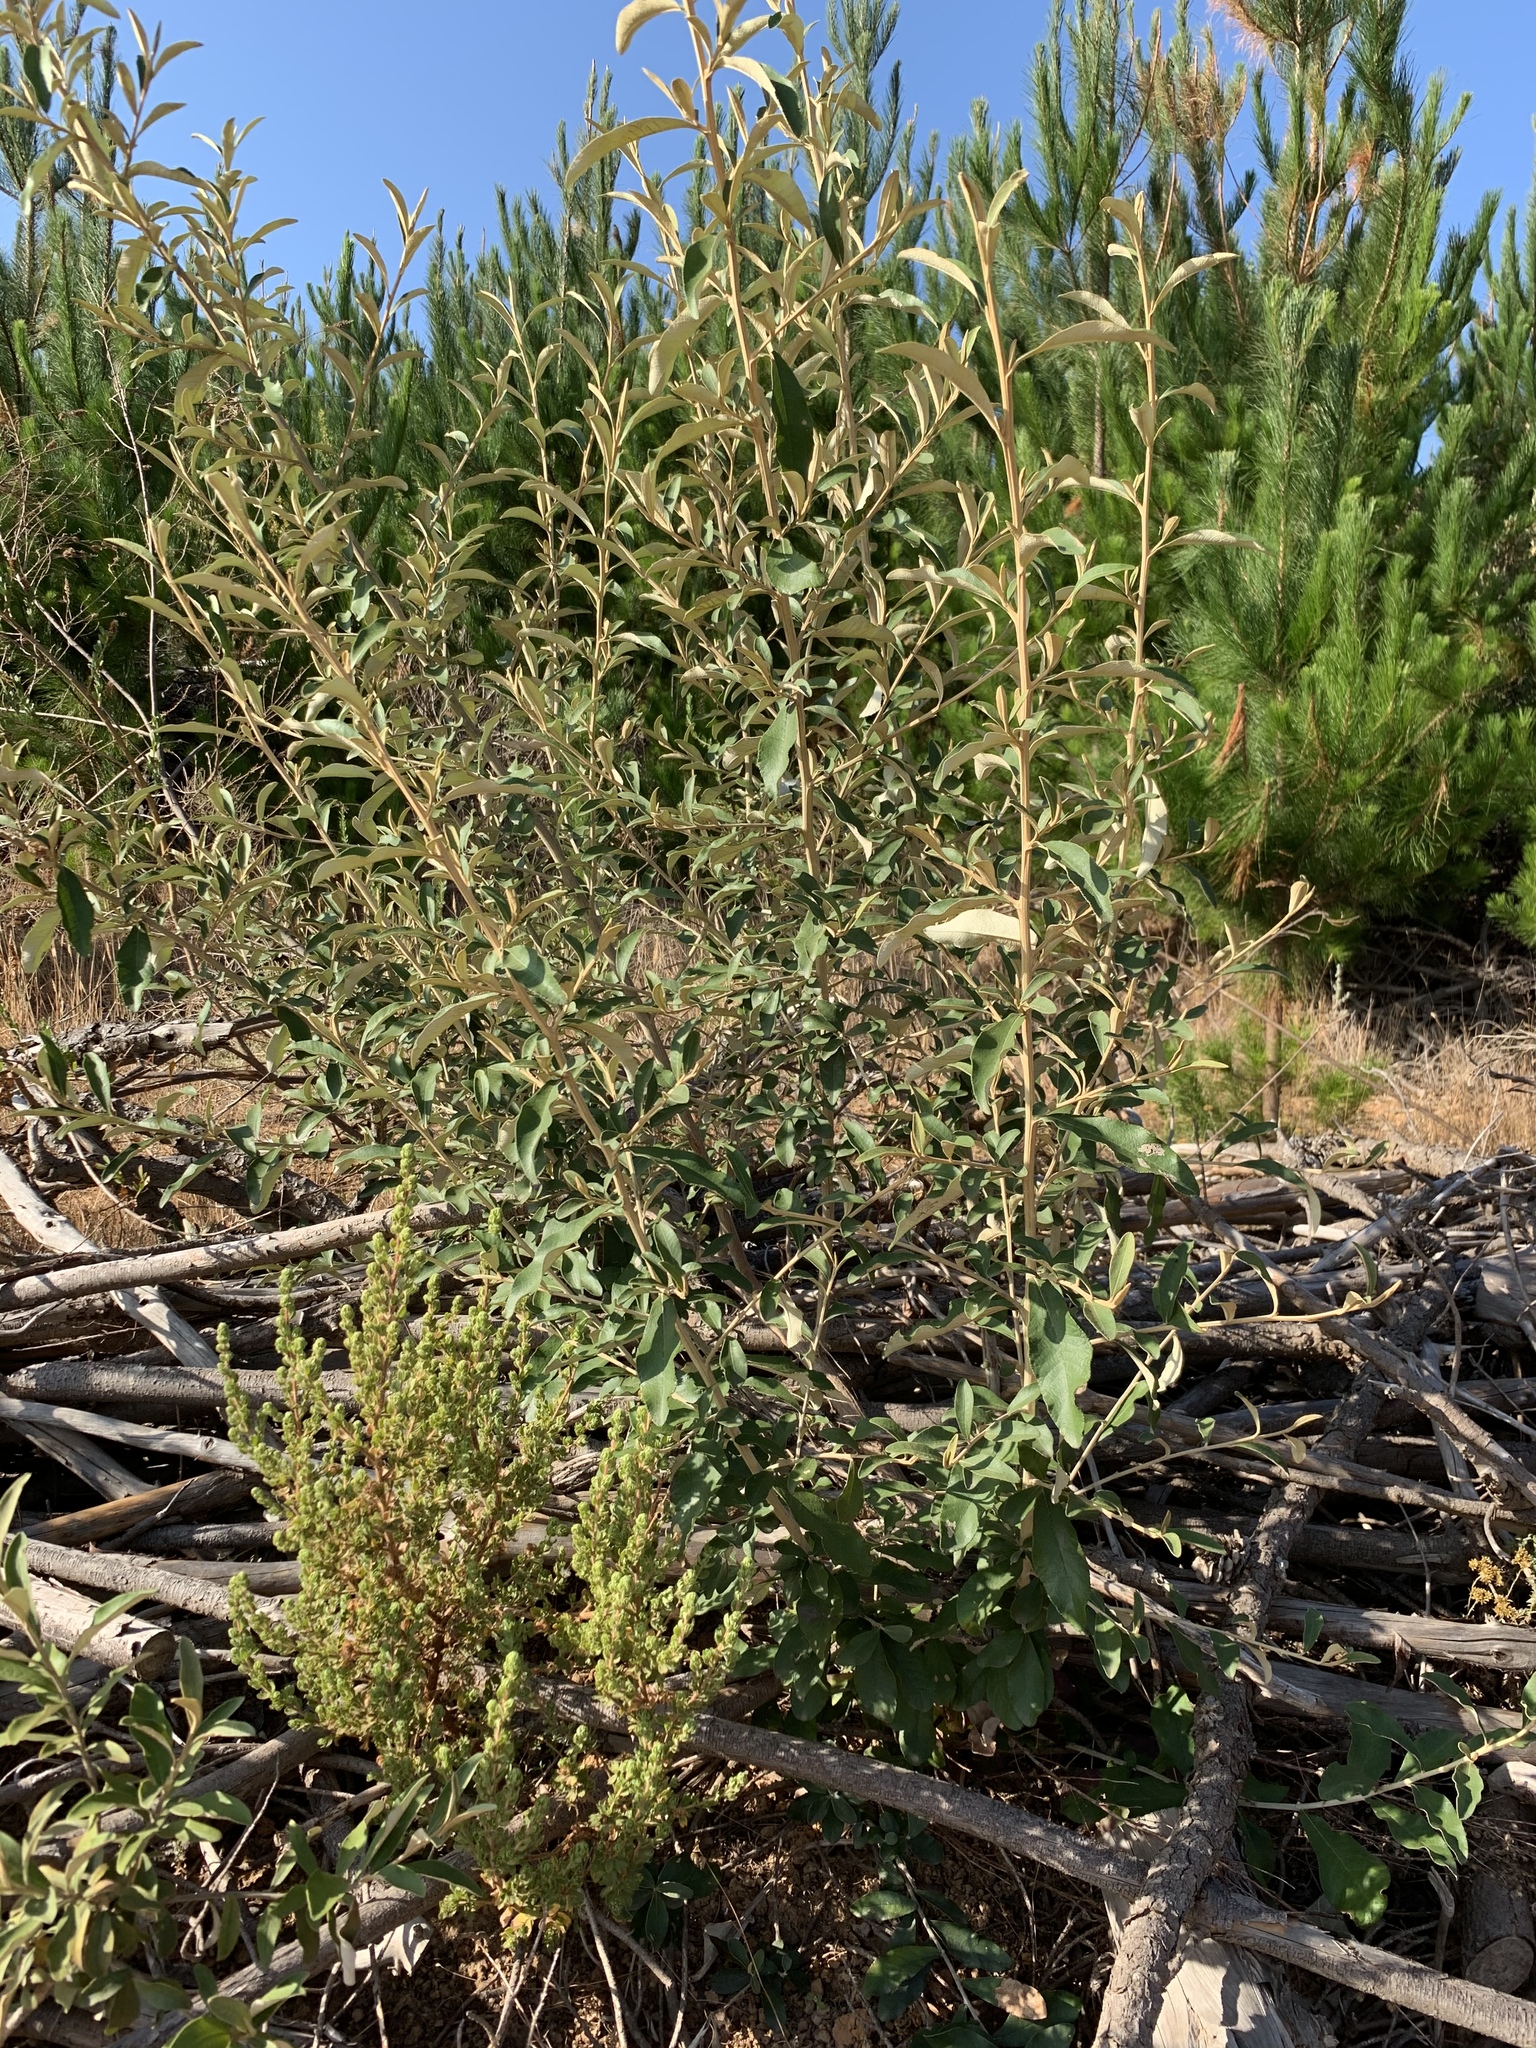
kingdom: Plantae
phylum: Tracheophyta
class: Magnoliopsida
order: Asterales
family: Asteraceae
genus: Tarchonanthus
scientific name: Tarchonanthus littoralis
